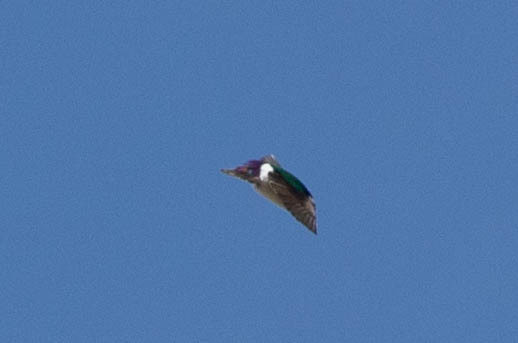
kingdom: Animalia
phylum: Chordata
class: Aves
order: Passeriformes
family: Hirundinidae
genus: Tachycineta
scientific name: Tachycineta thalassina
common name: Violet-green swallow
